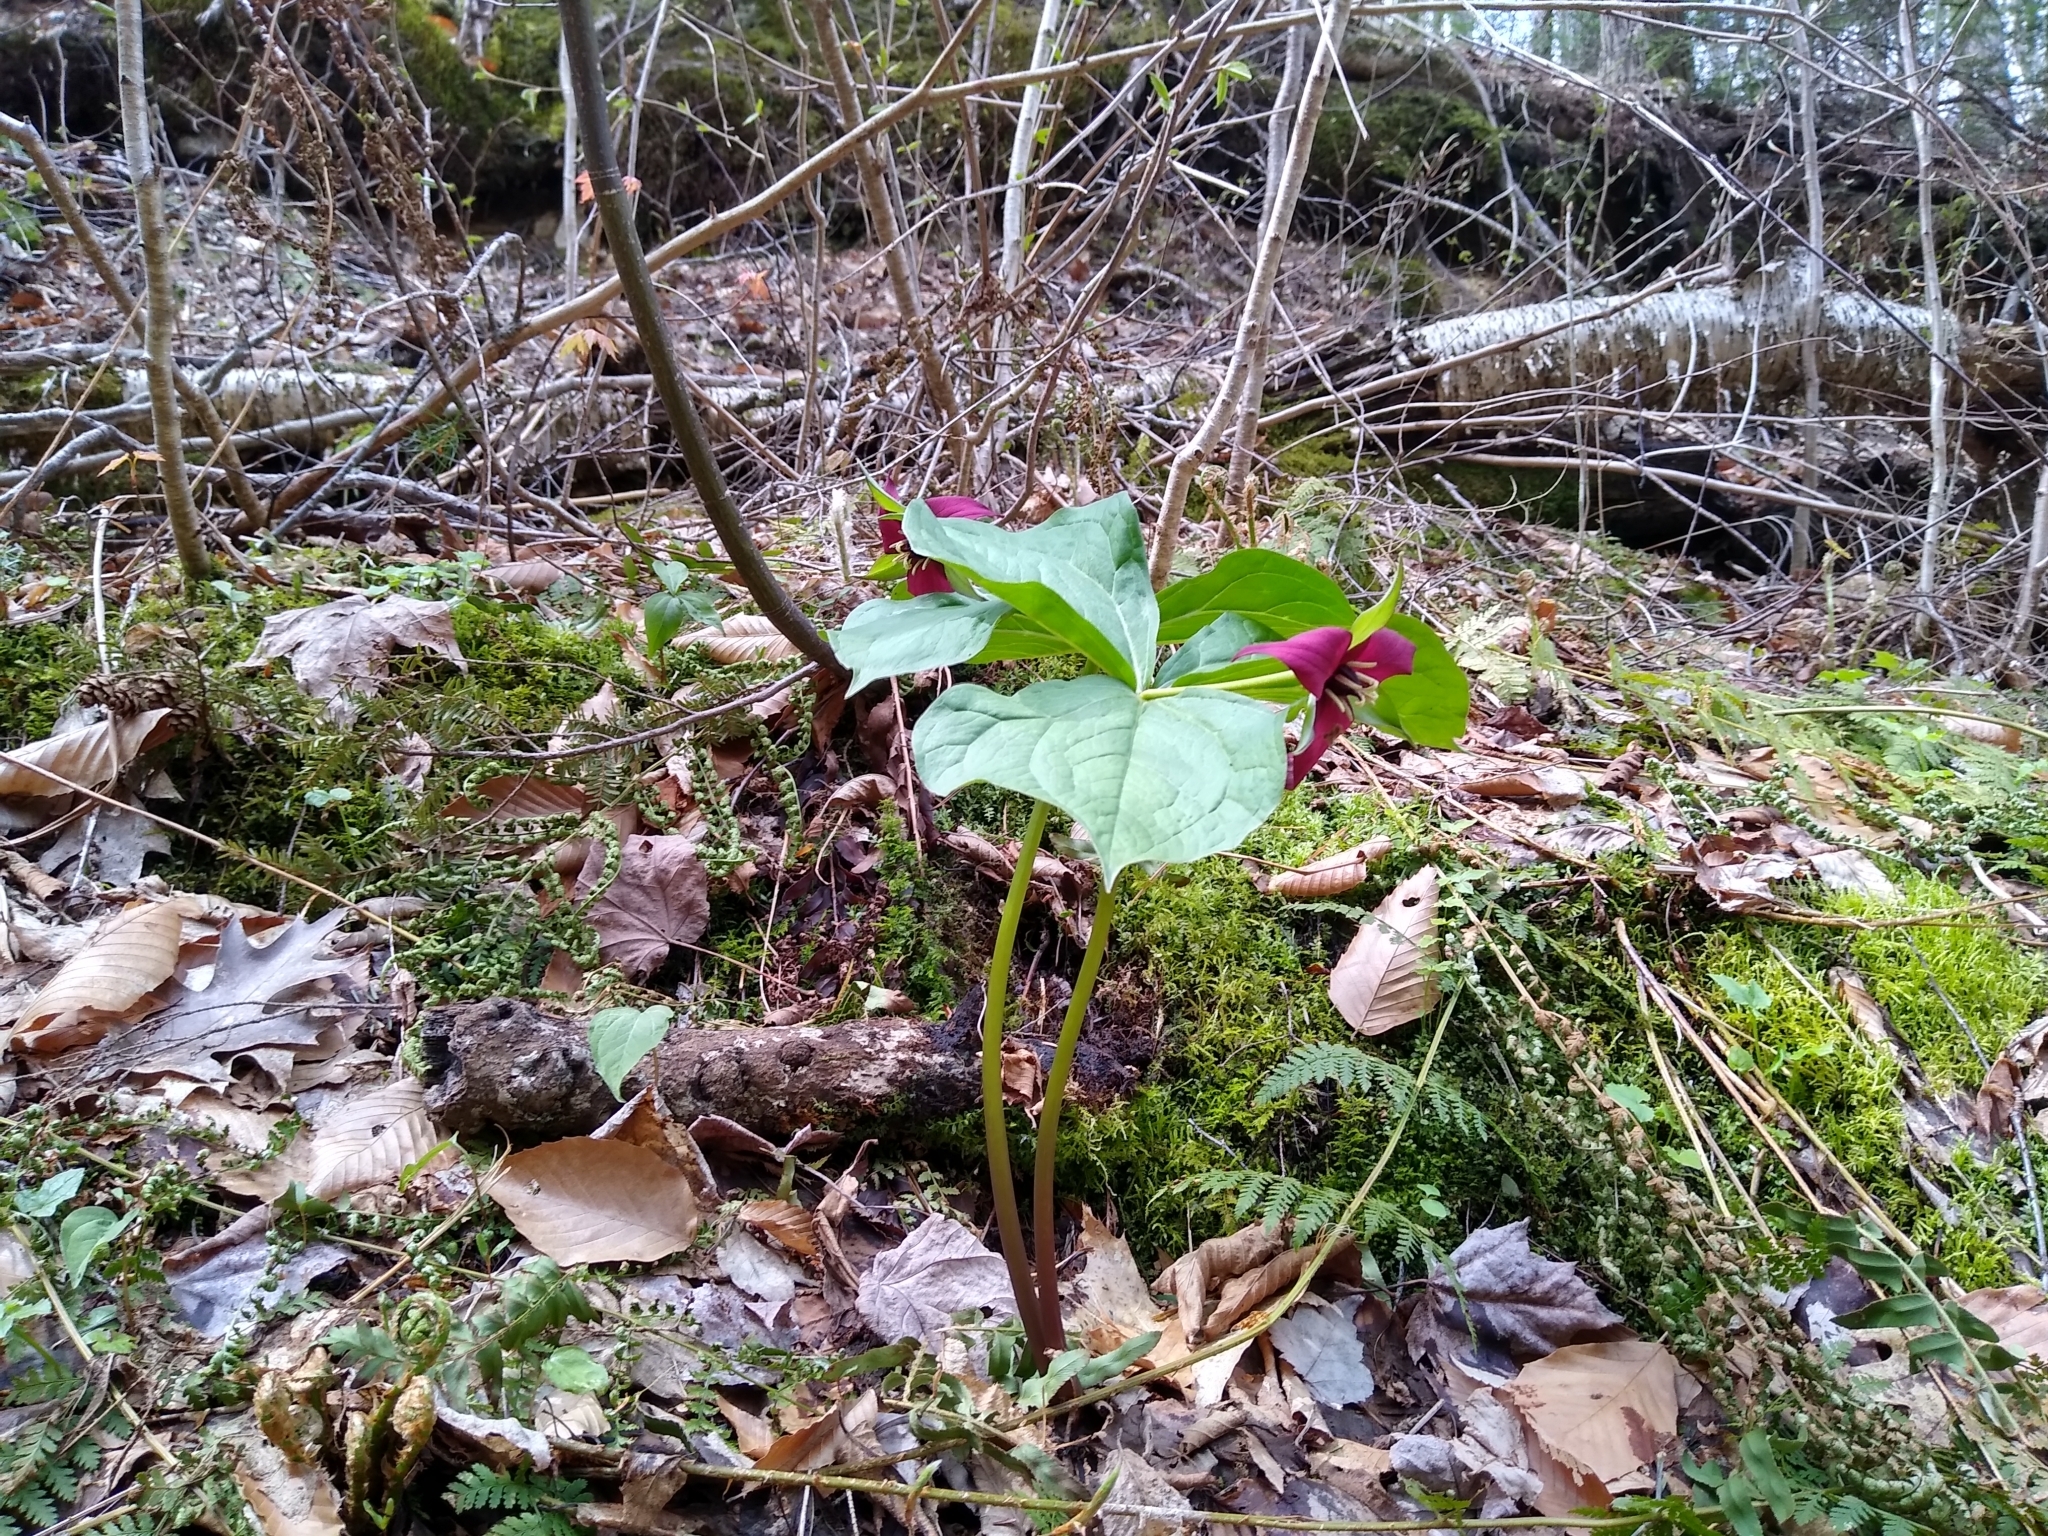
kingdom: Plantae
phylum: Tracheophyta
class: Liliopsida
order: Liliales
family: Melanthiaceae
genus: Trillium
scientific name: Trillium erectum
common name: Purple trillium
